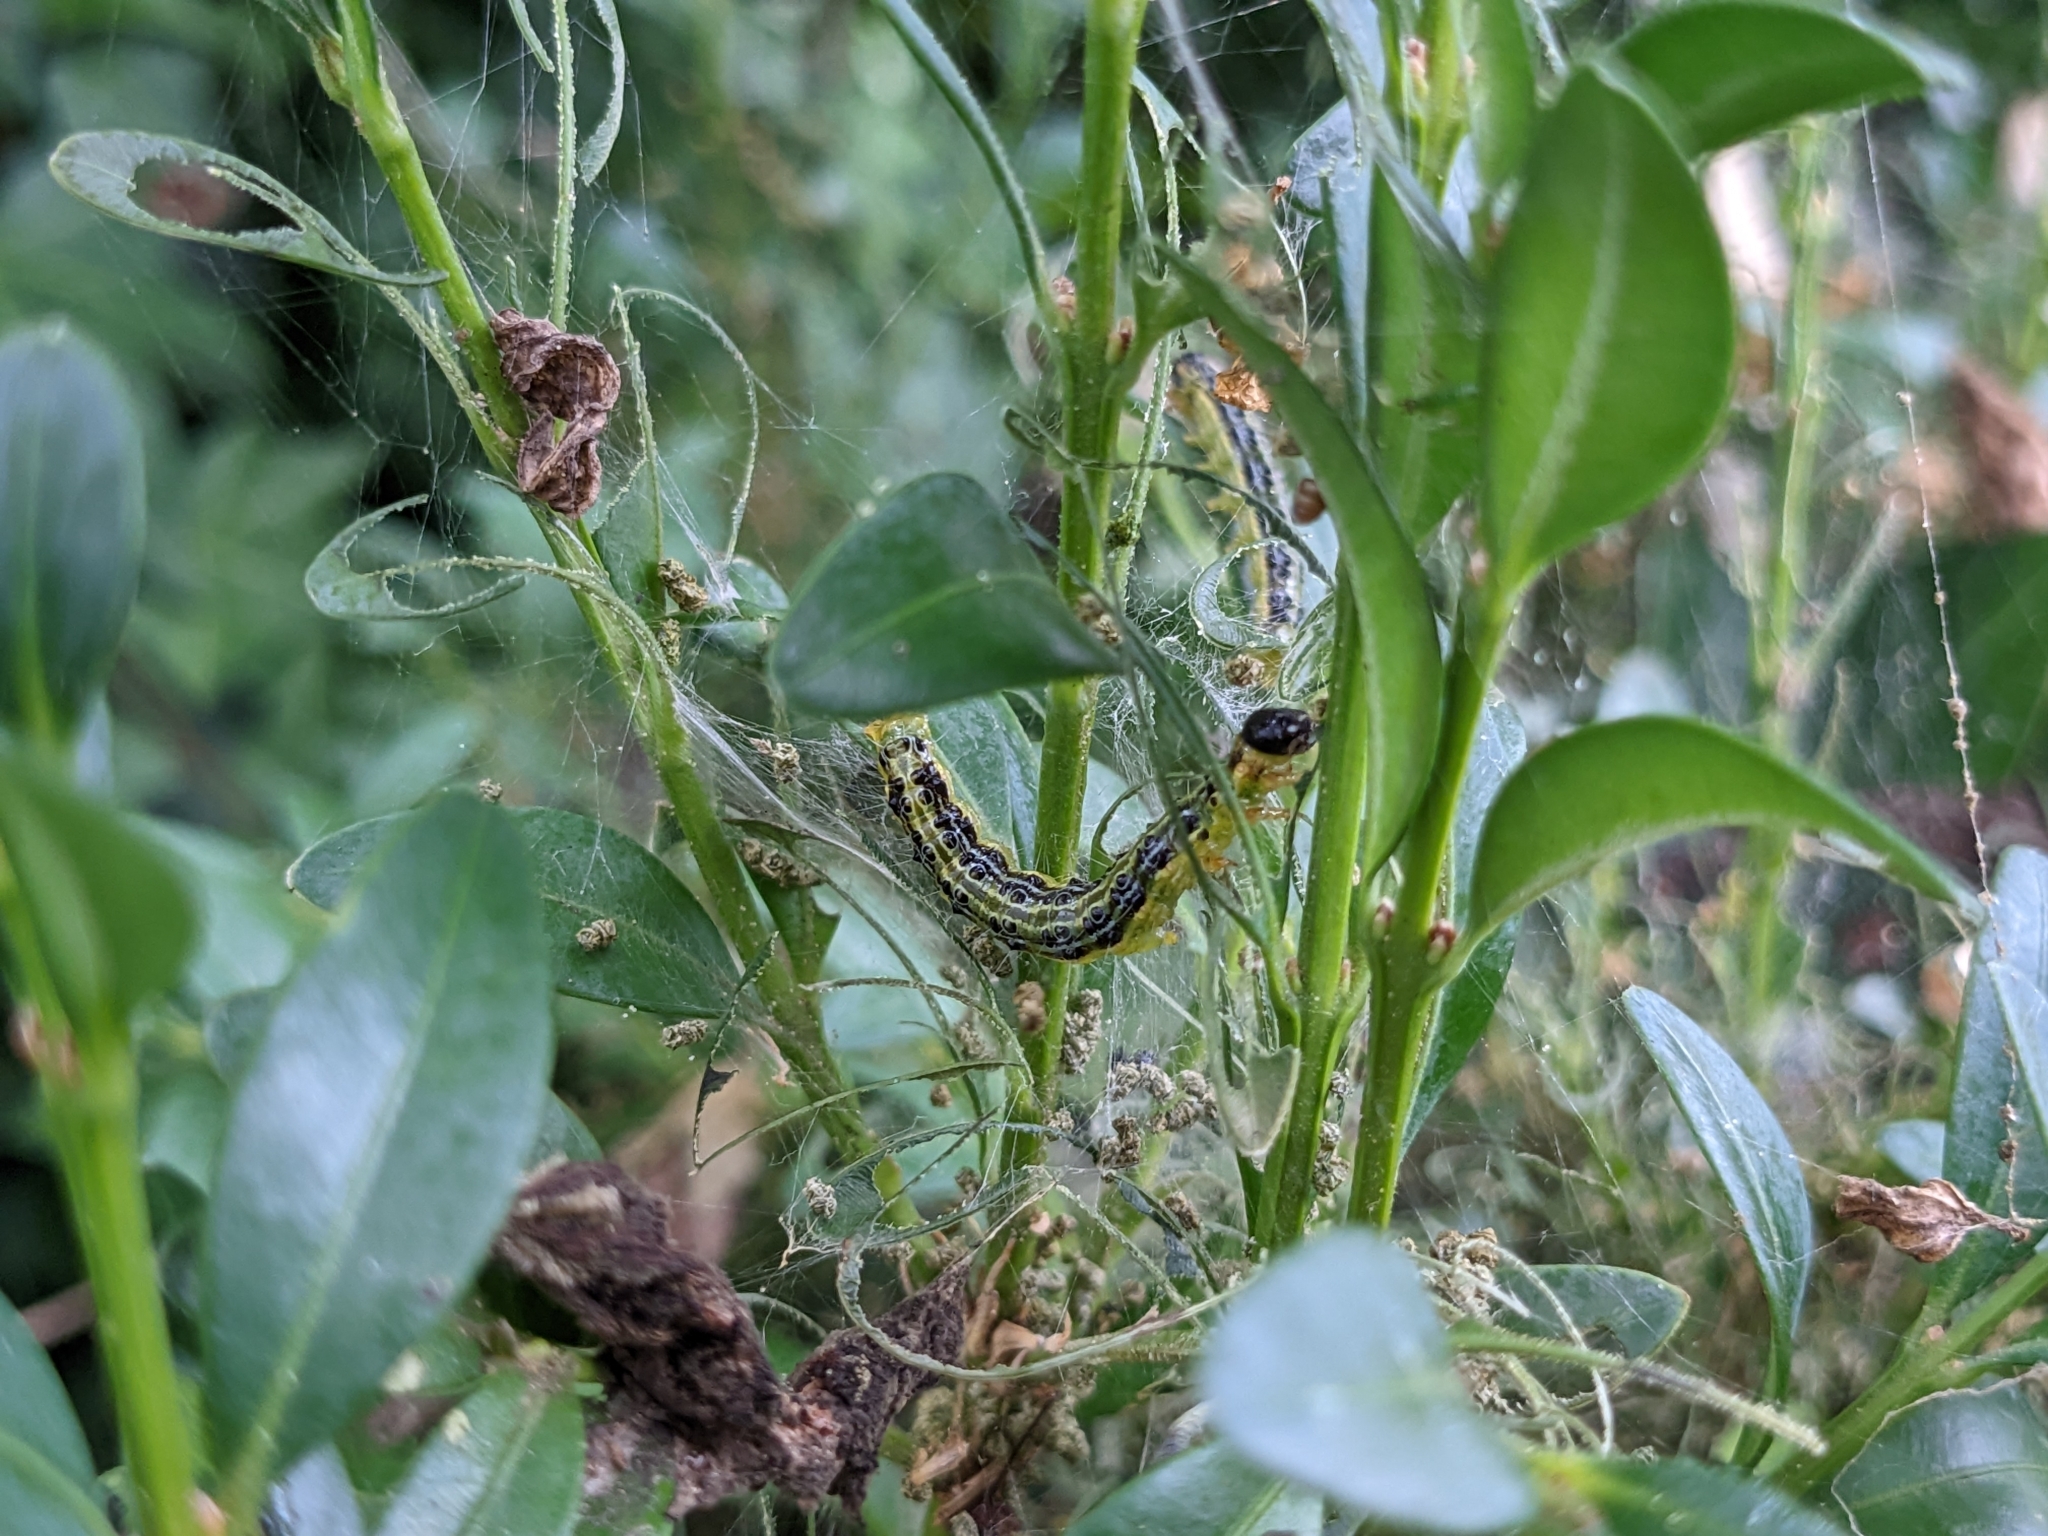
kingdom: Animalia
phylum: Arthropoda
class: Insecta
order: Lepidoptera
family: Crambidae
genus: Cydalima
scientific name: Cydalima perspectalis
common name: Box tree moth
